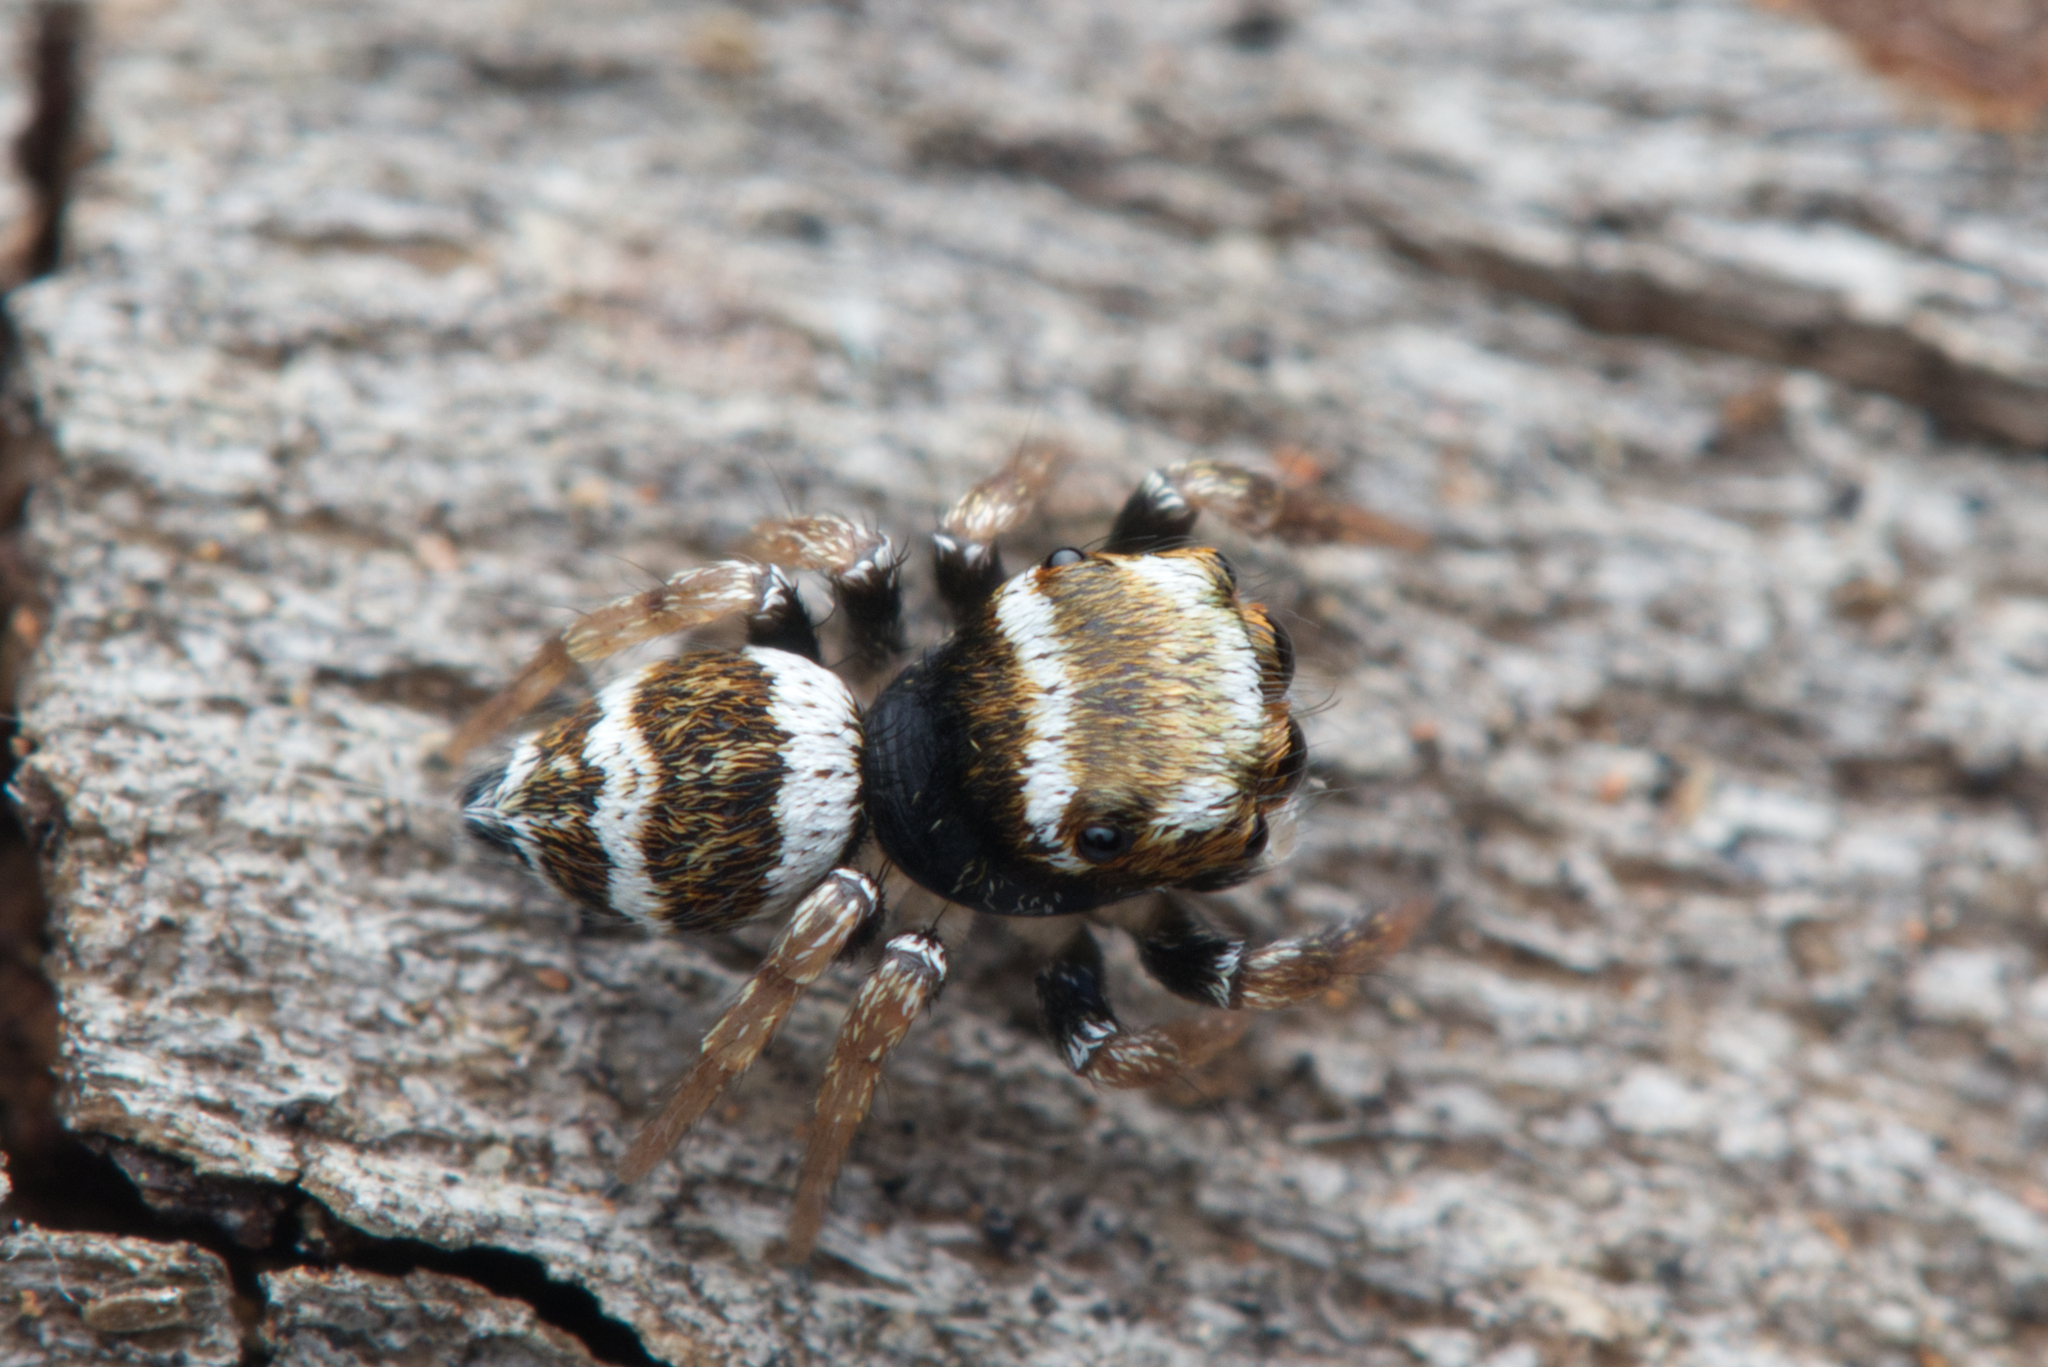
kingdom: Animalia
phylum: Arthropoda
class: Arachnida
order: Araneae
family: Salticidae
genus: Euryattus
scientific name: Euryattus bleekeri
